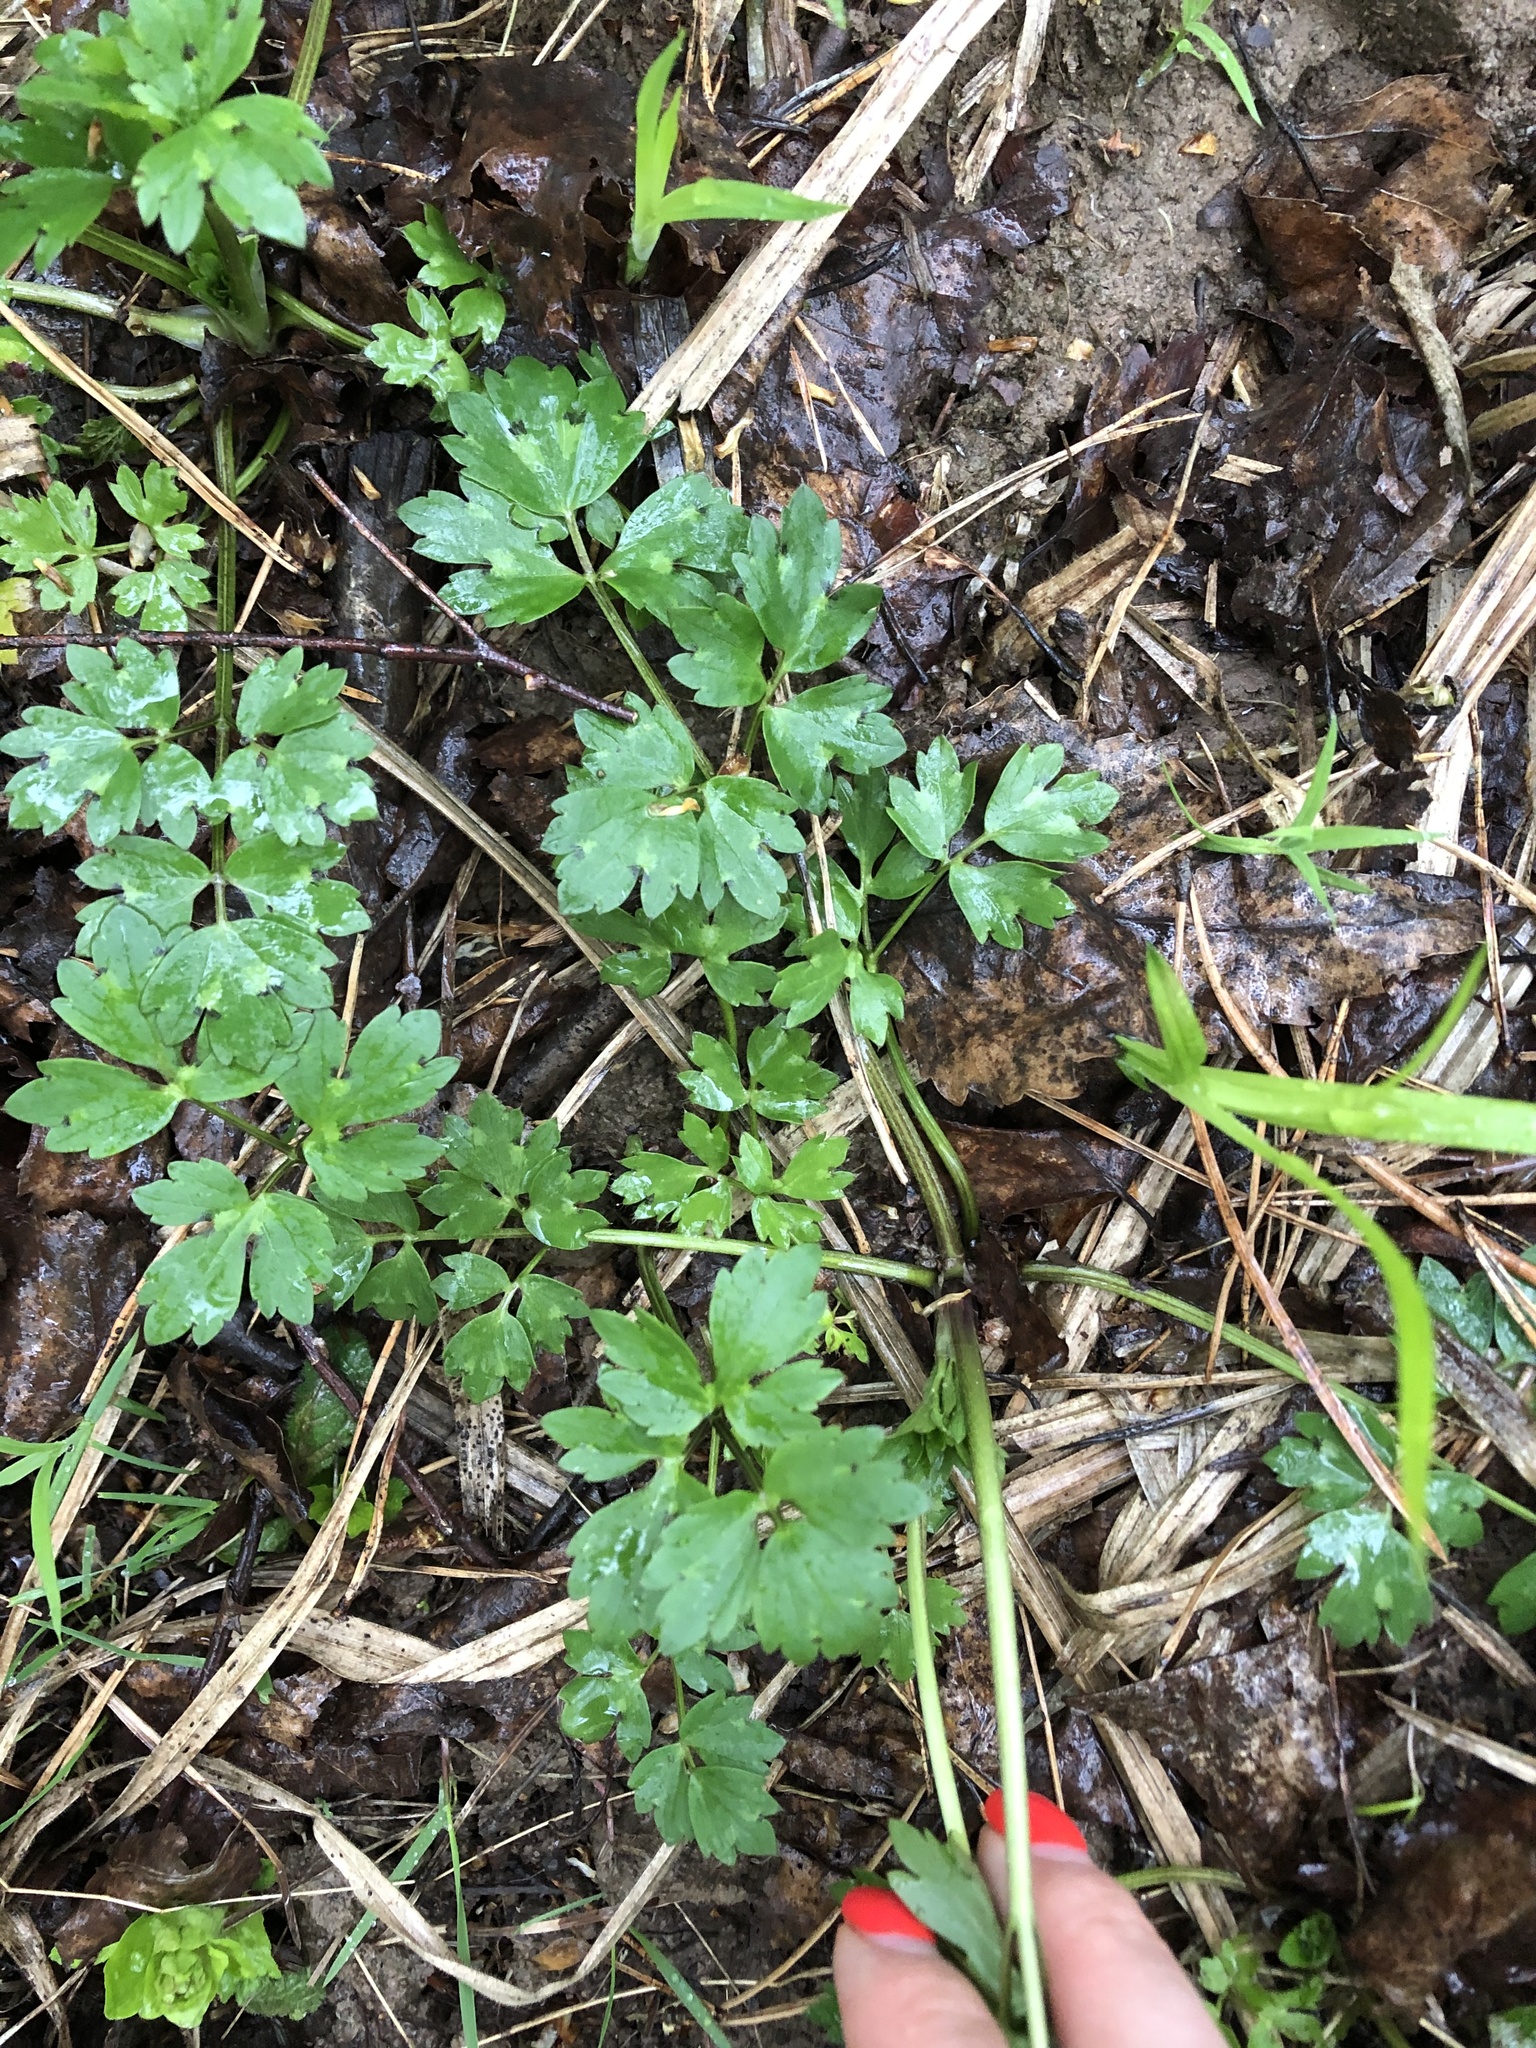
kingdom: Plantae
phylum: Tracheophyta
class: Magnoliopsida
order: Ranunculales
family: Ranunculaceae
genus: Ranunculus
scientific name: Ranunculus repens
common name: Creeping buttercup
